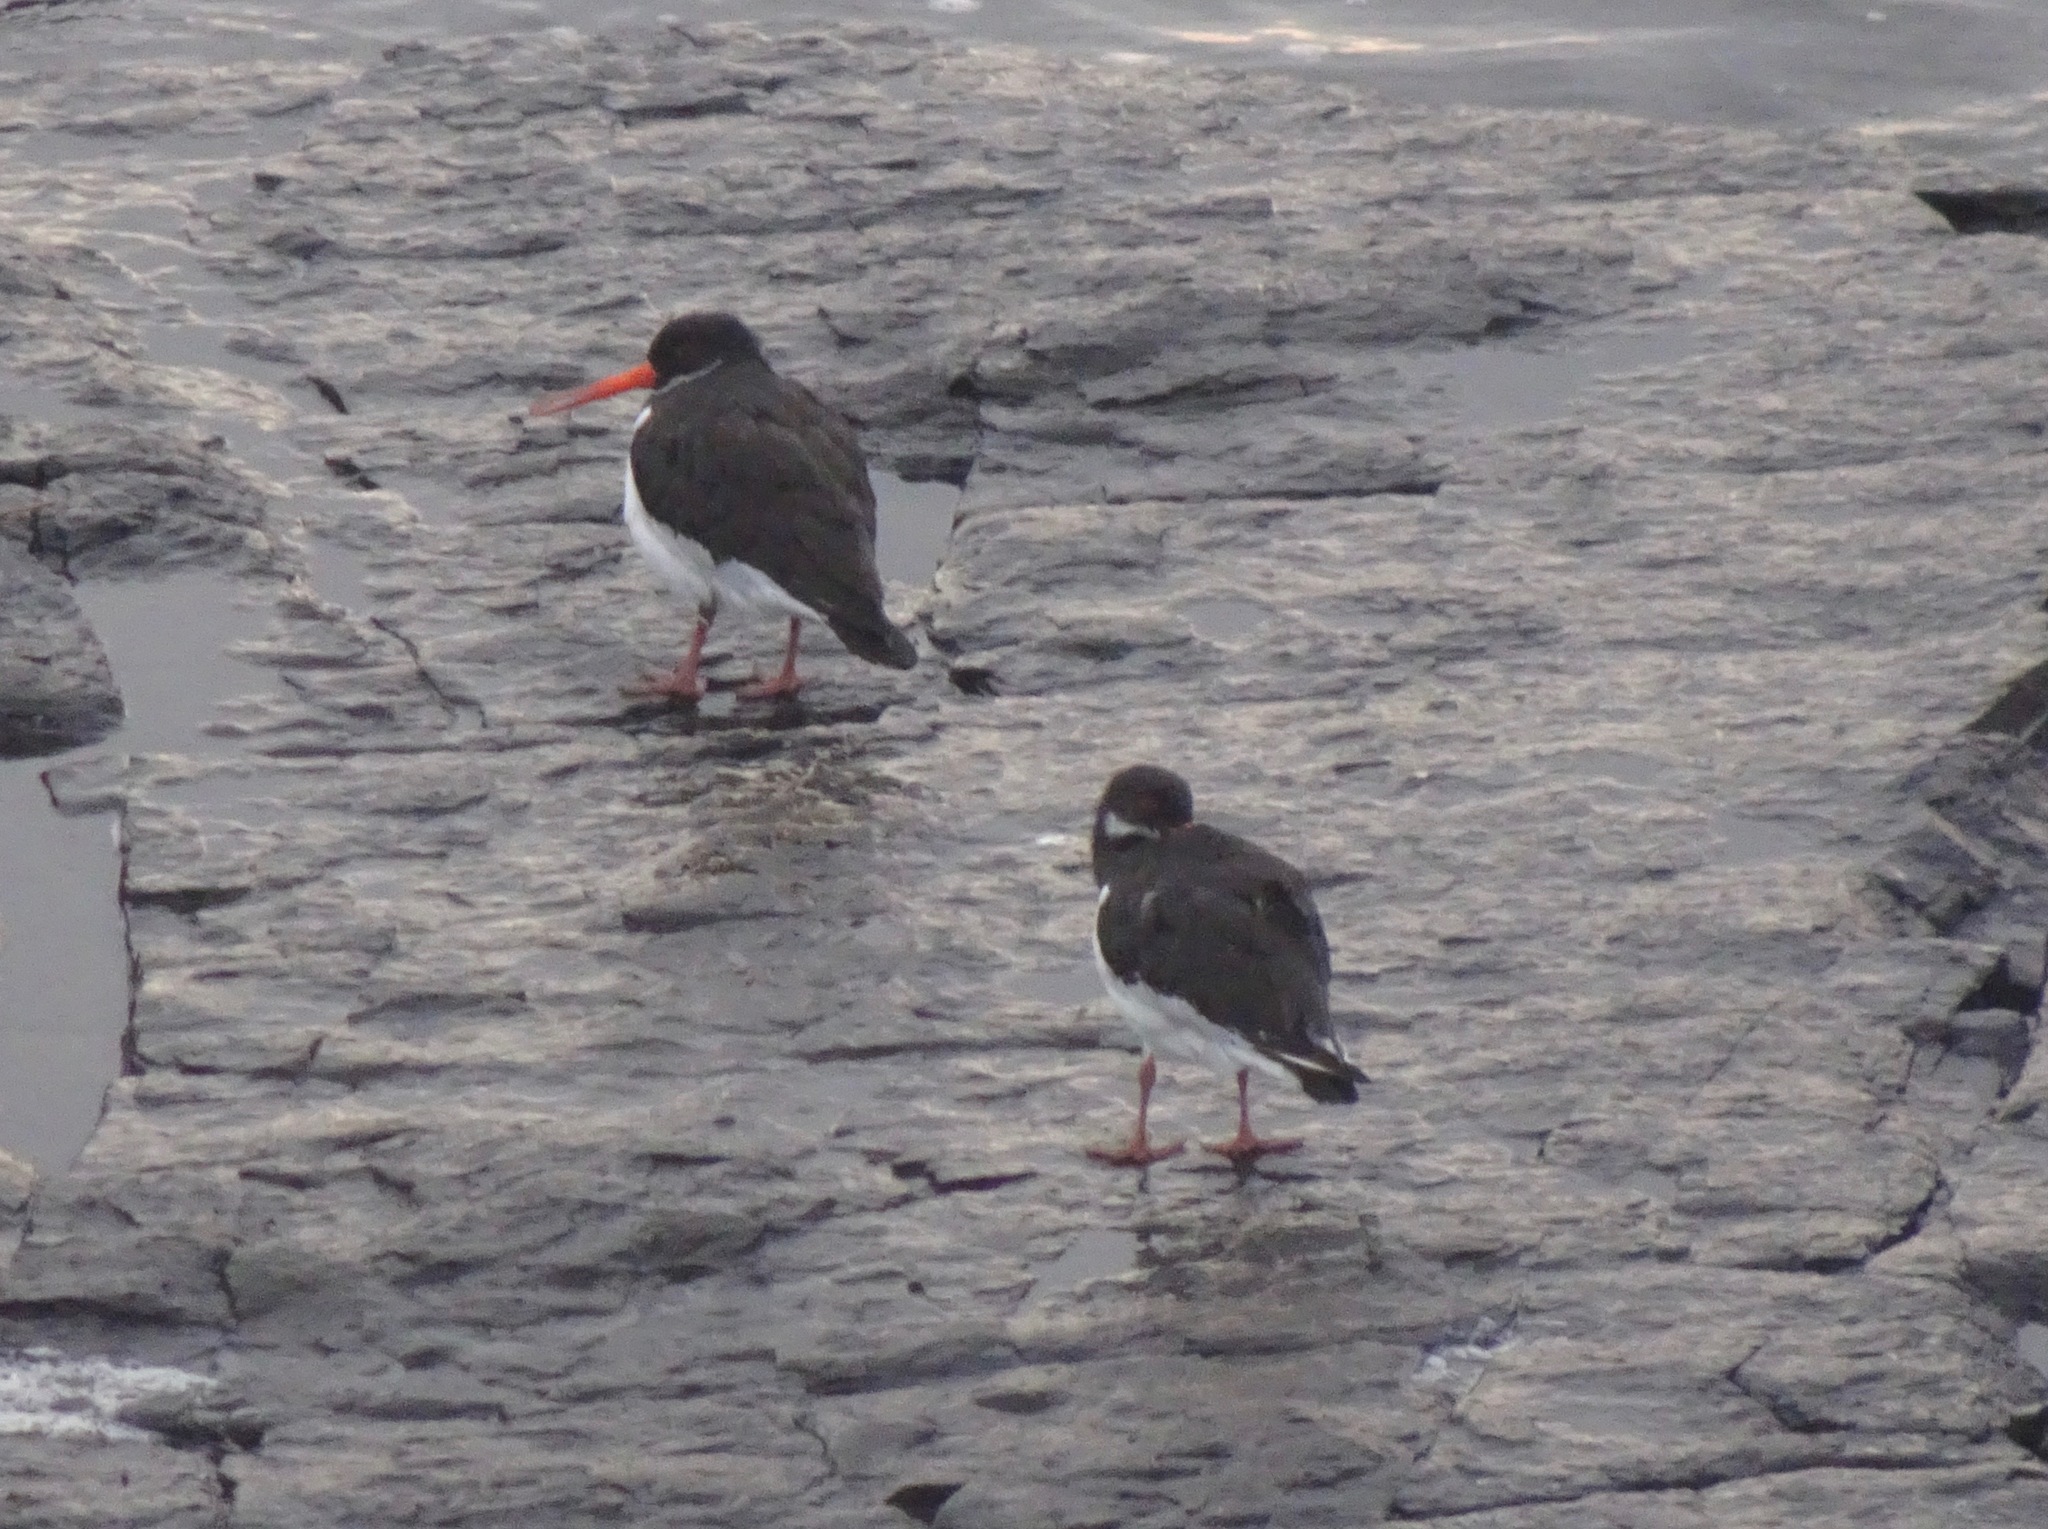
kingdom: Animalia
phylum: Chordata
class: Aves
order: Charadriiformes
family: Haematopodidae
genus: Haematopus
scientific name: Haematopus ostralegus
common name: Eurasian oystercatcher
